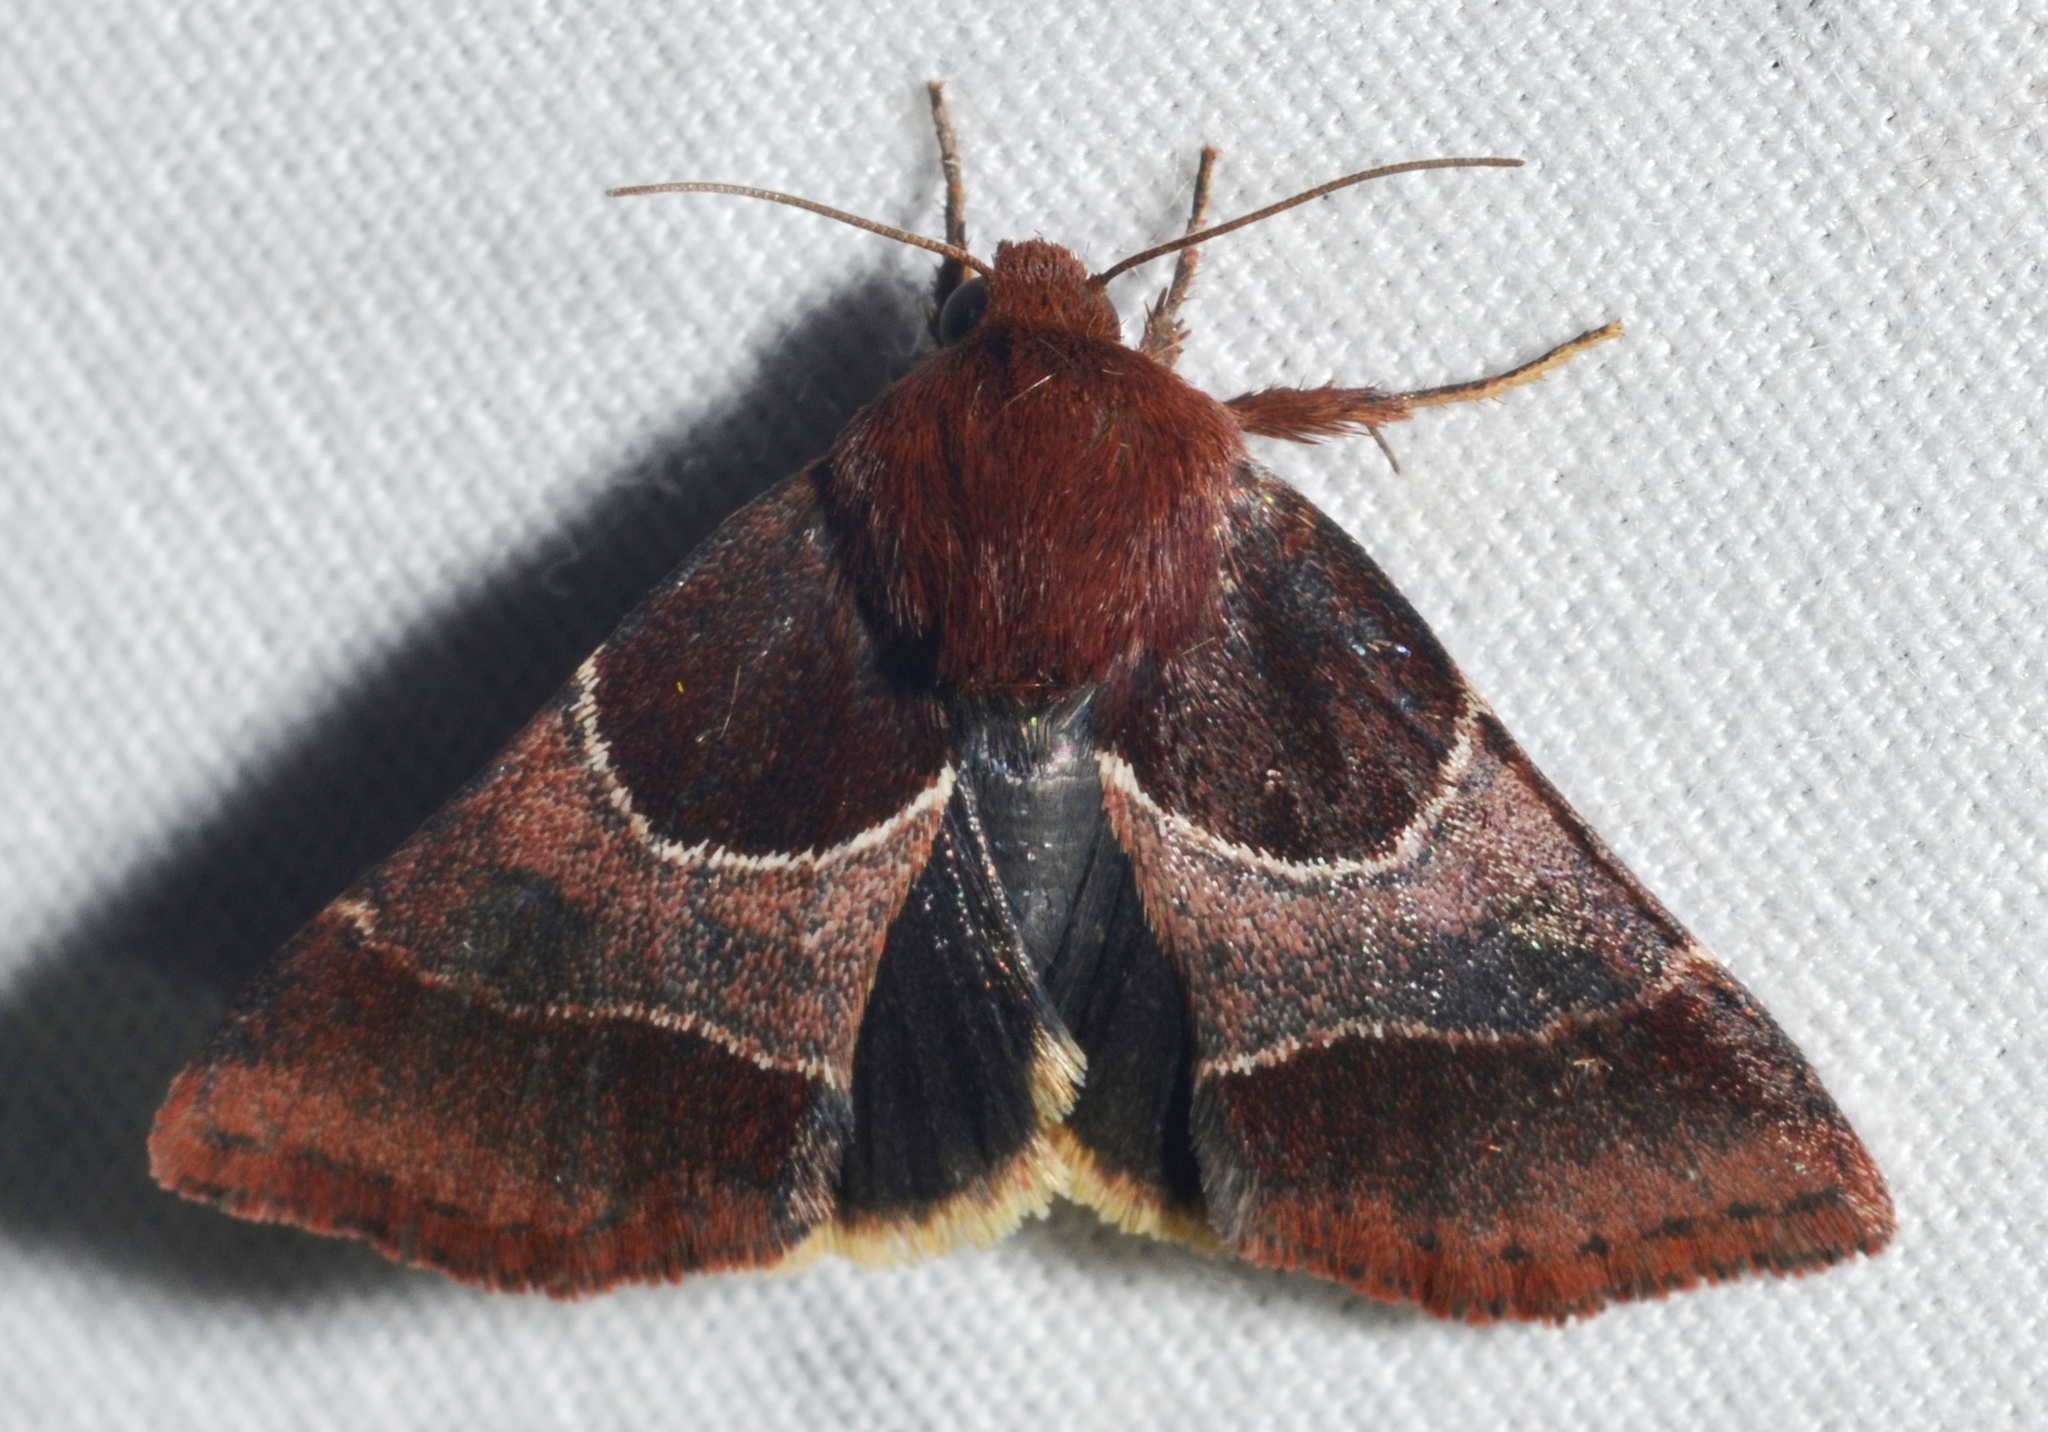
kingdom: Animalia
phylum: Arthropoda
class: Insecta
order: Lepidoptera
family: Noctuidae
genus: Schinia
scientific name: Schinia arcigera
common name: Arcigera flower moth
